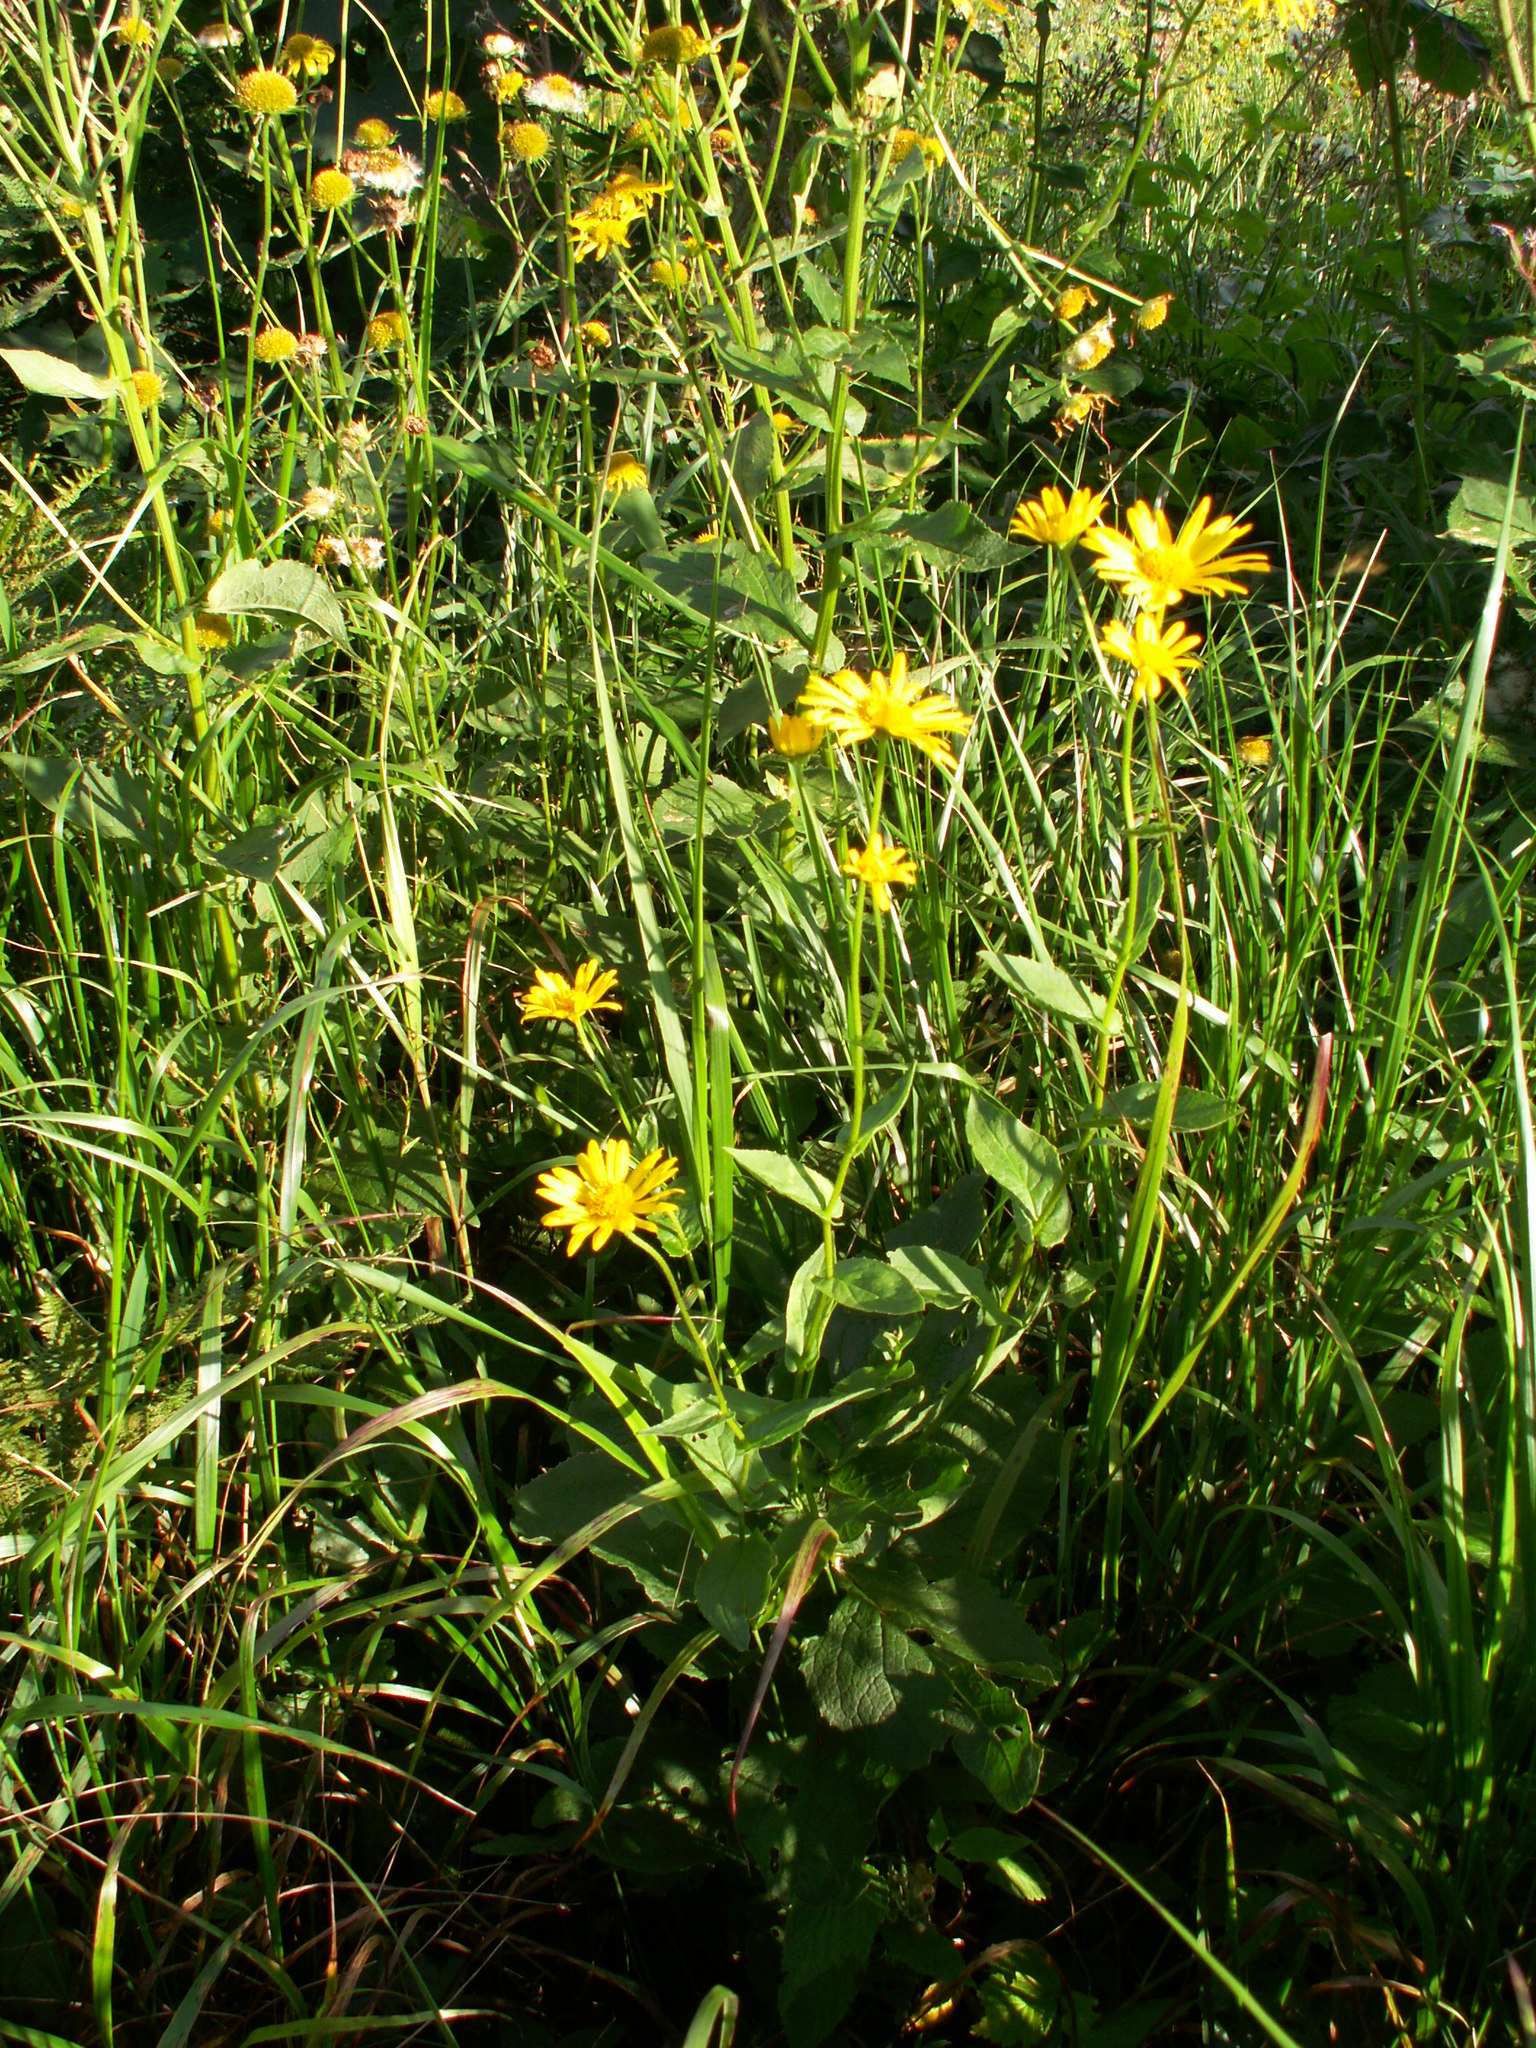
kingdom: Plantae
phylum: Tracheophyta
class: Magnoliopsida
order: Asterales
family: Asteraceae
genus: Doronicum
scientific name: Doronicum austriacum
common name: Austrian leopard's-bane
